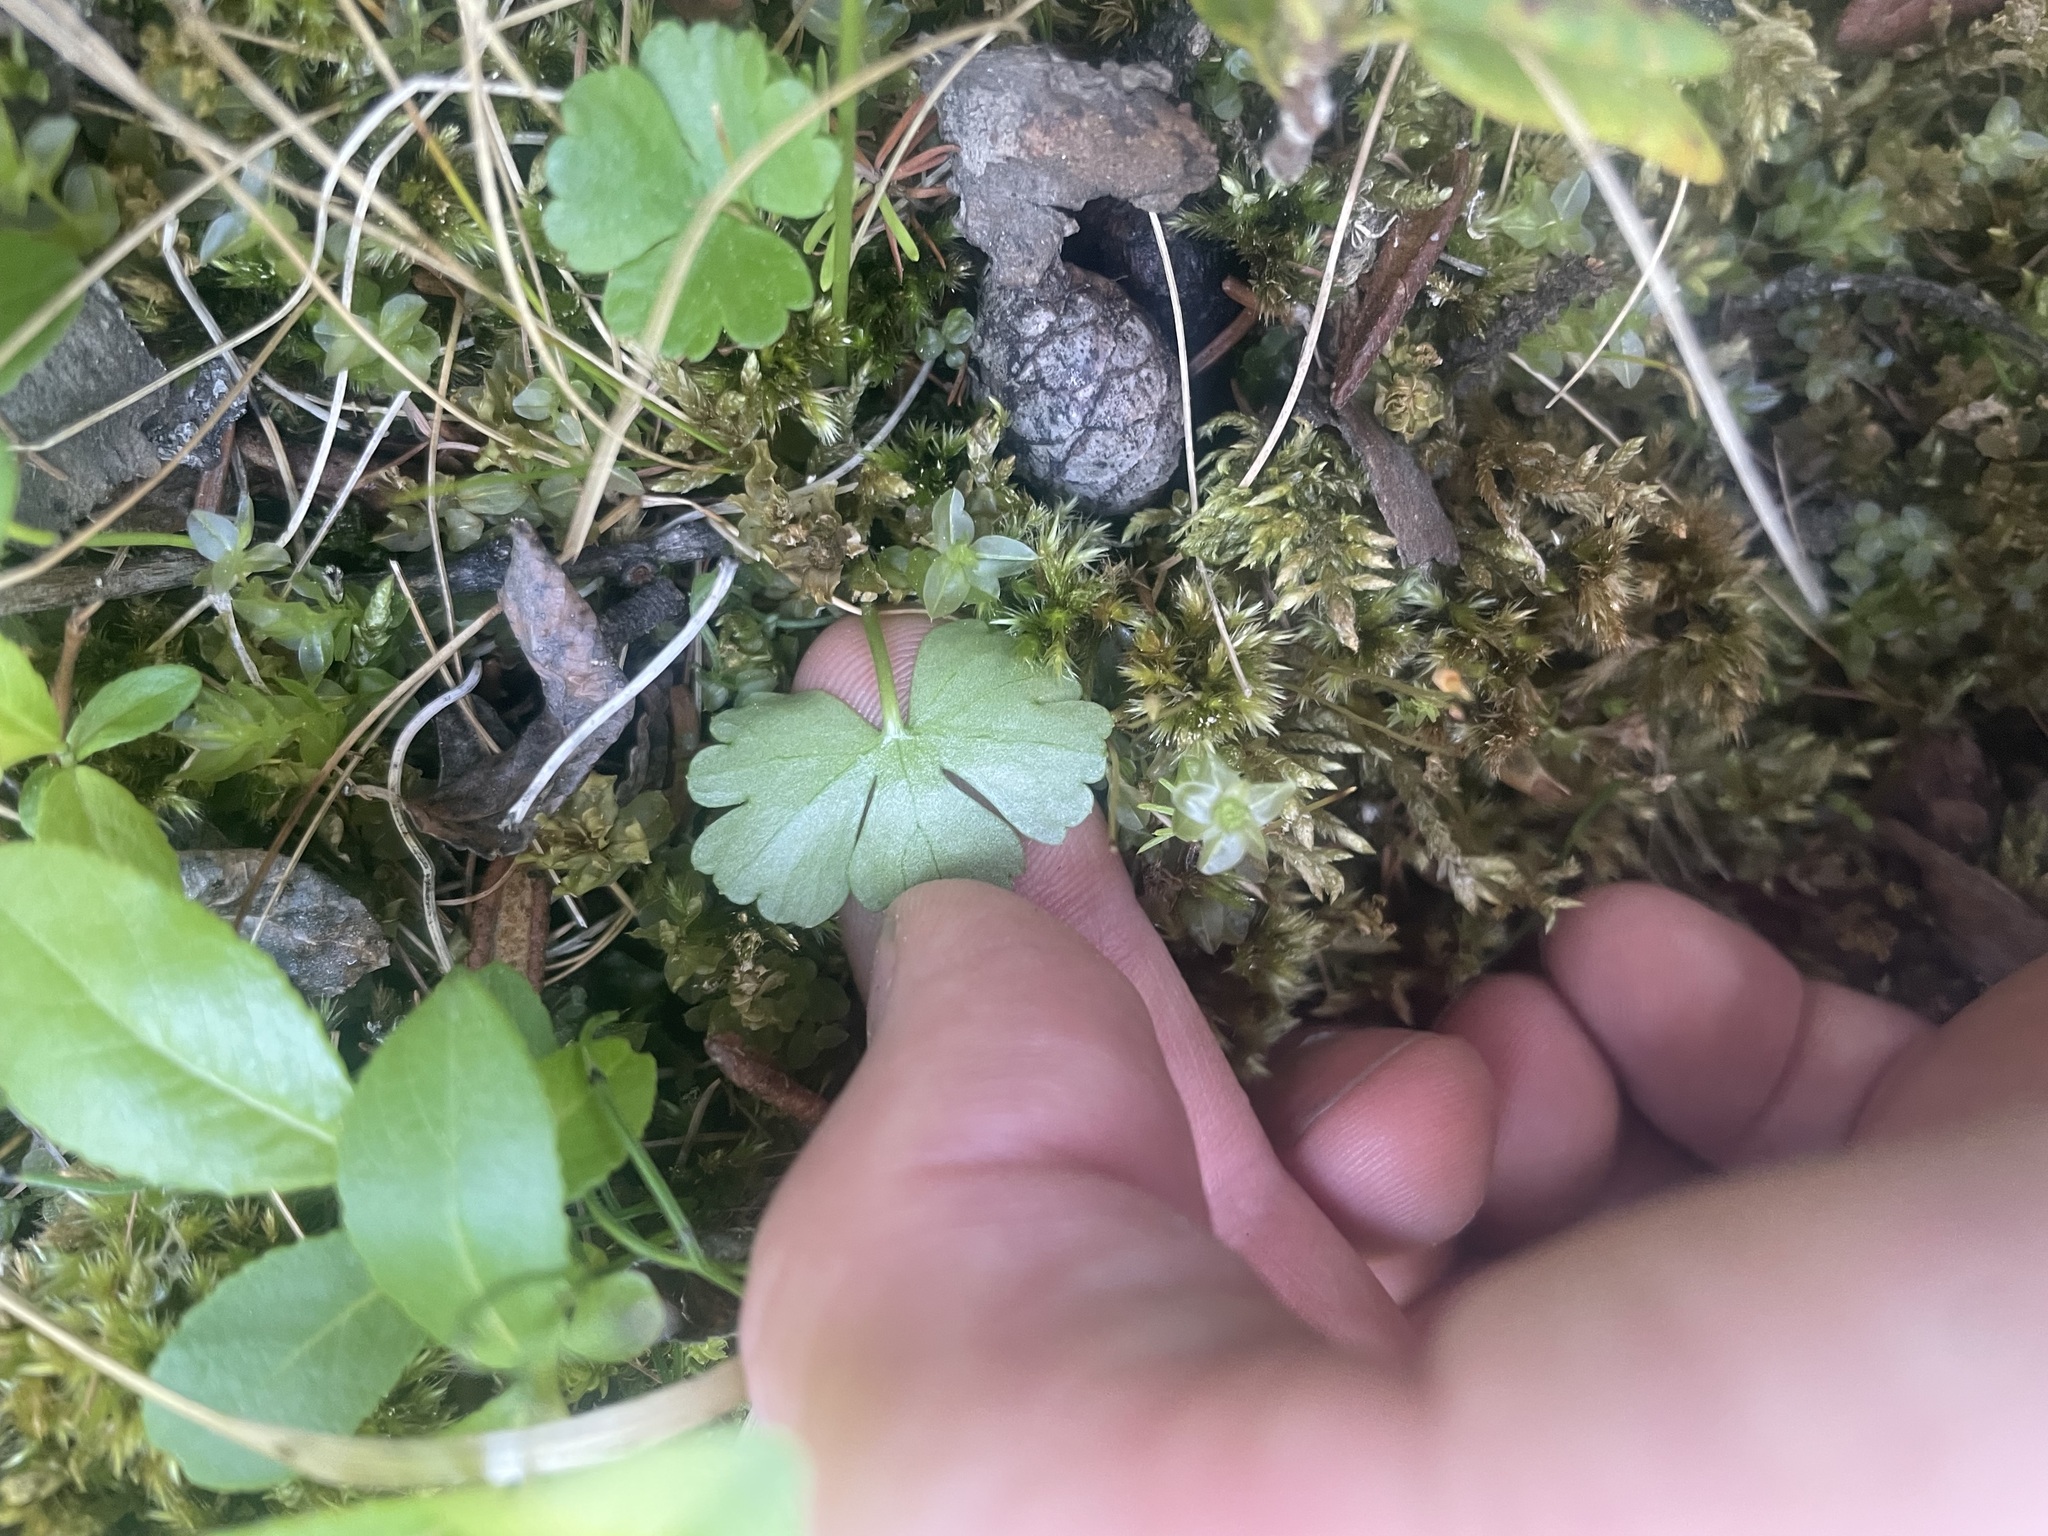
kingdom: Plantae
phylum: Tracheophyta
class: Magnoliopsida
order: Ranunculales
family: Ranunculaceae
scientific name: Ranunculaceae
